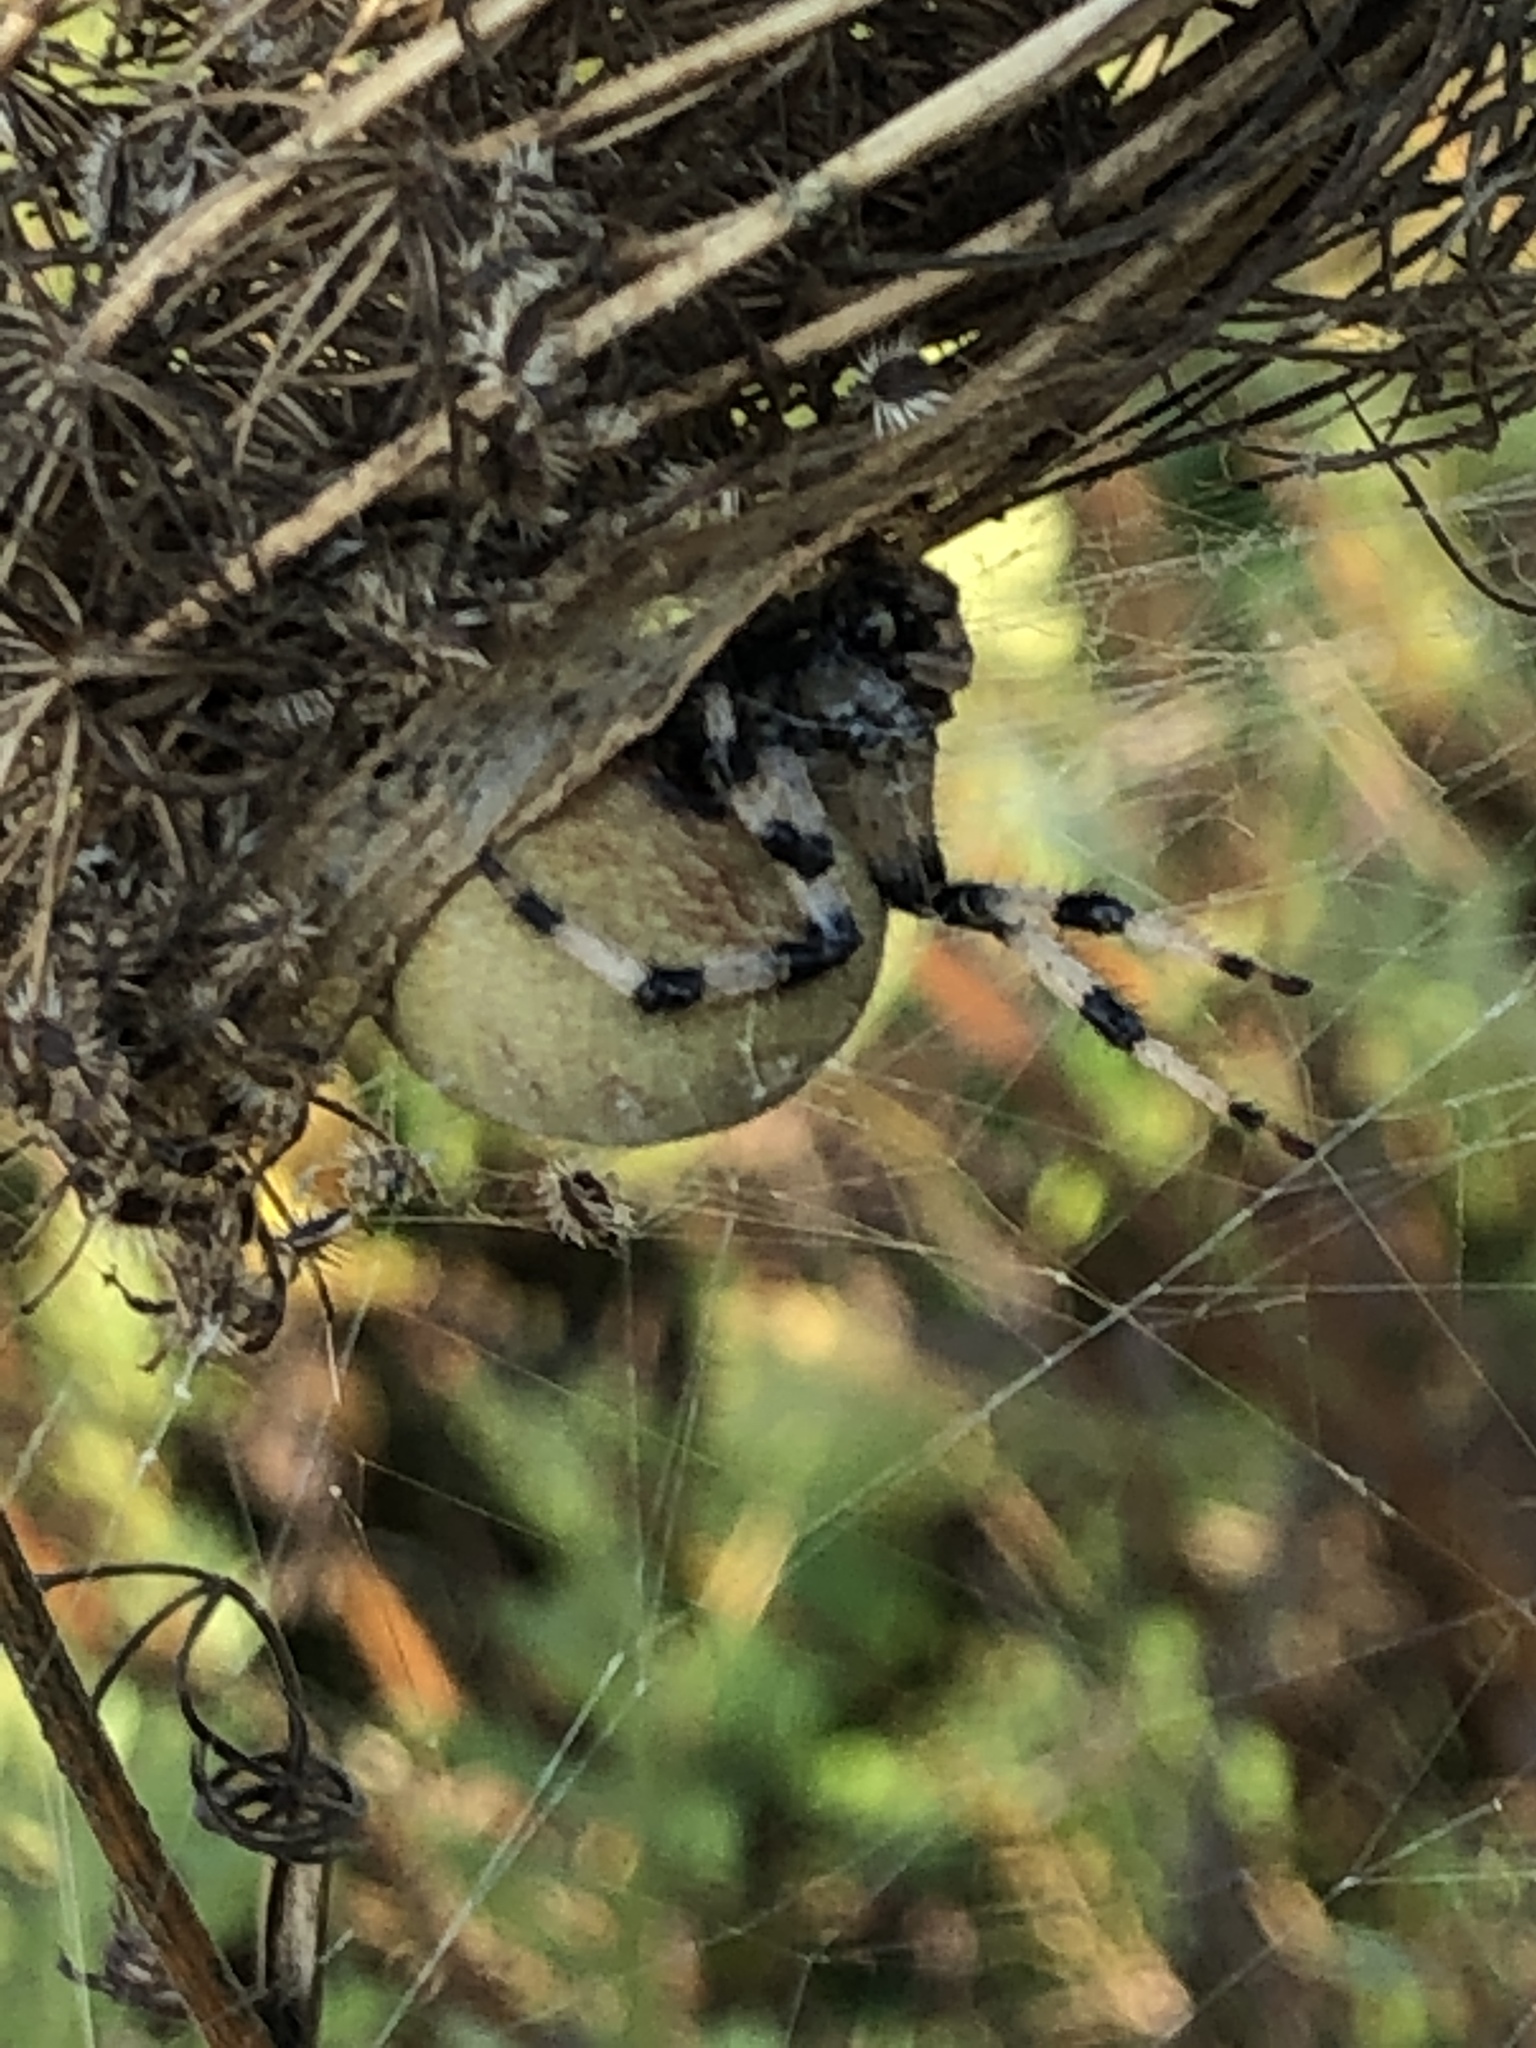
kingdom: Animalia
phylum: Arthropoda
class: Arachnida
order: Araneae
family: Araneidae
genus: Araneus
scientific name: Araneus quadratus
